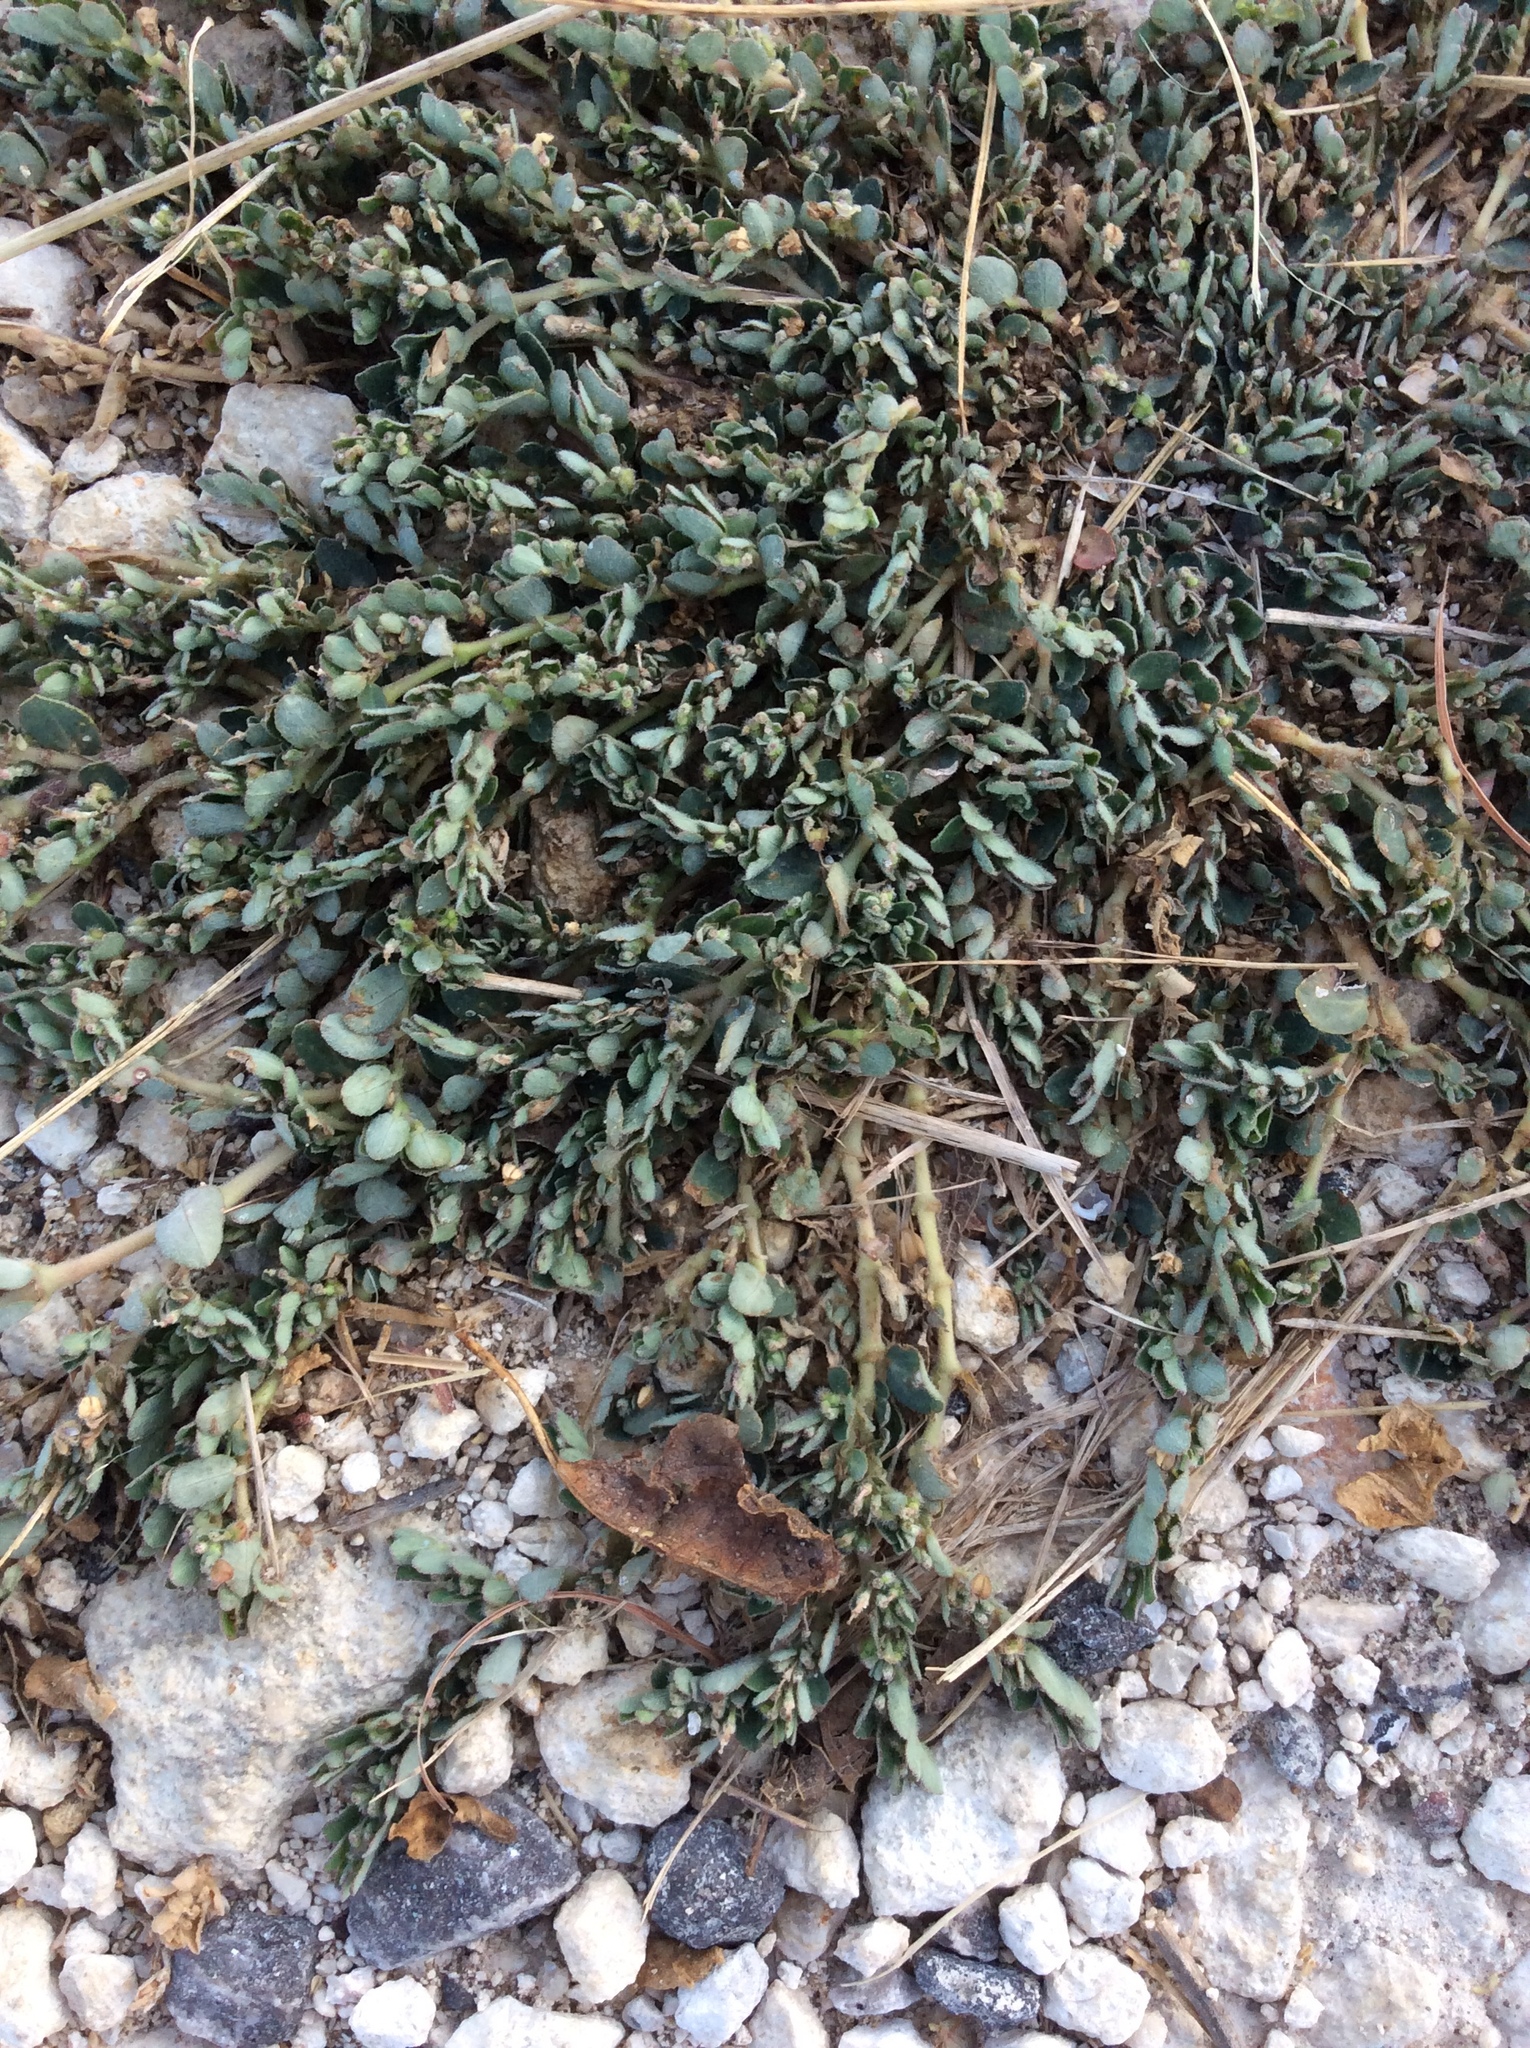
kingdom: Plantae
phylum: Tracheophyta
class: Magnoliopsida
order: Malpighiales
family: Euphorbiaceae
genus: Euphorbia
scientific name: Euphorbia prostrata
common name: Prostrate sandmat
